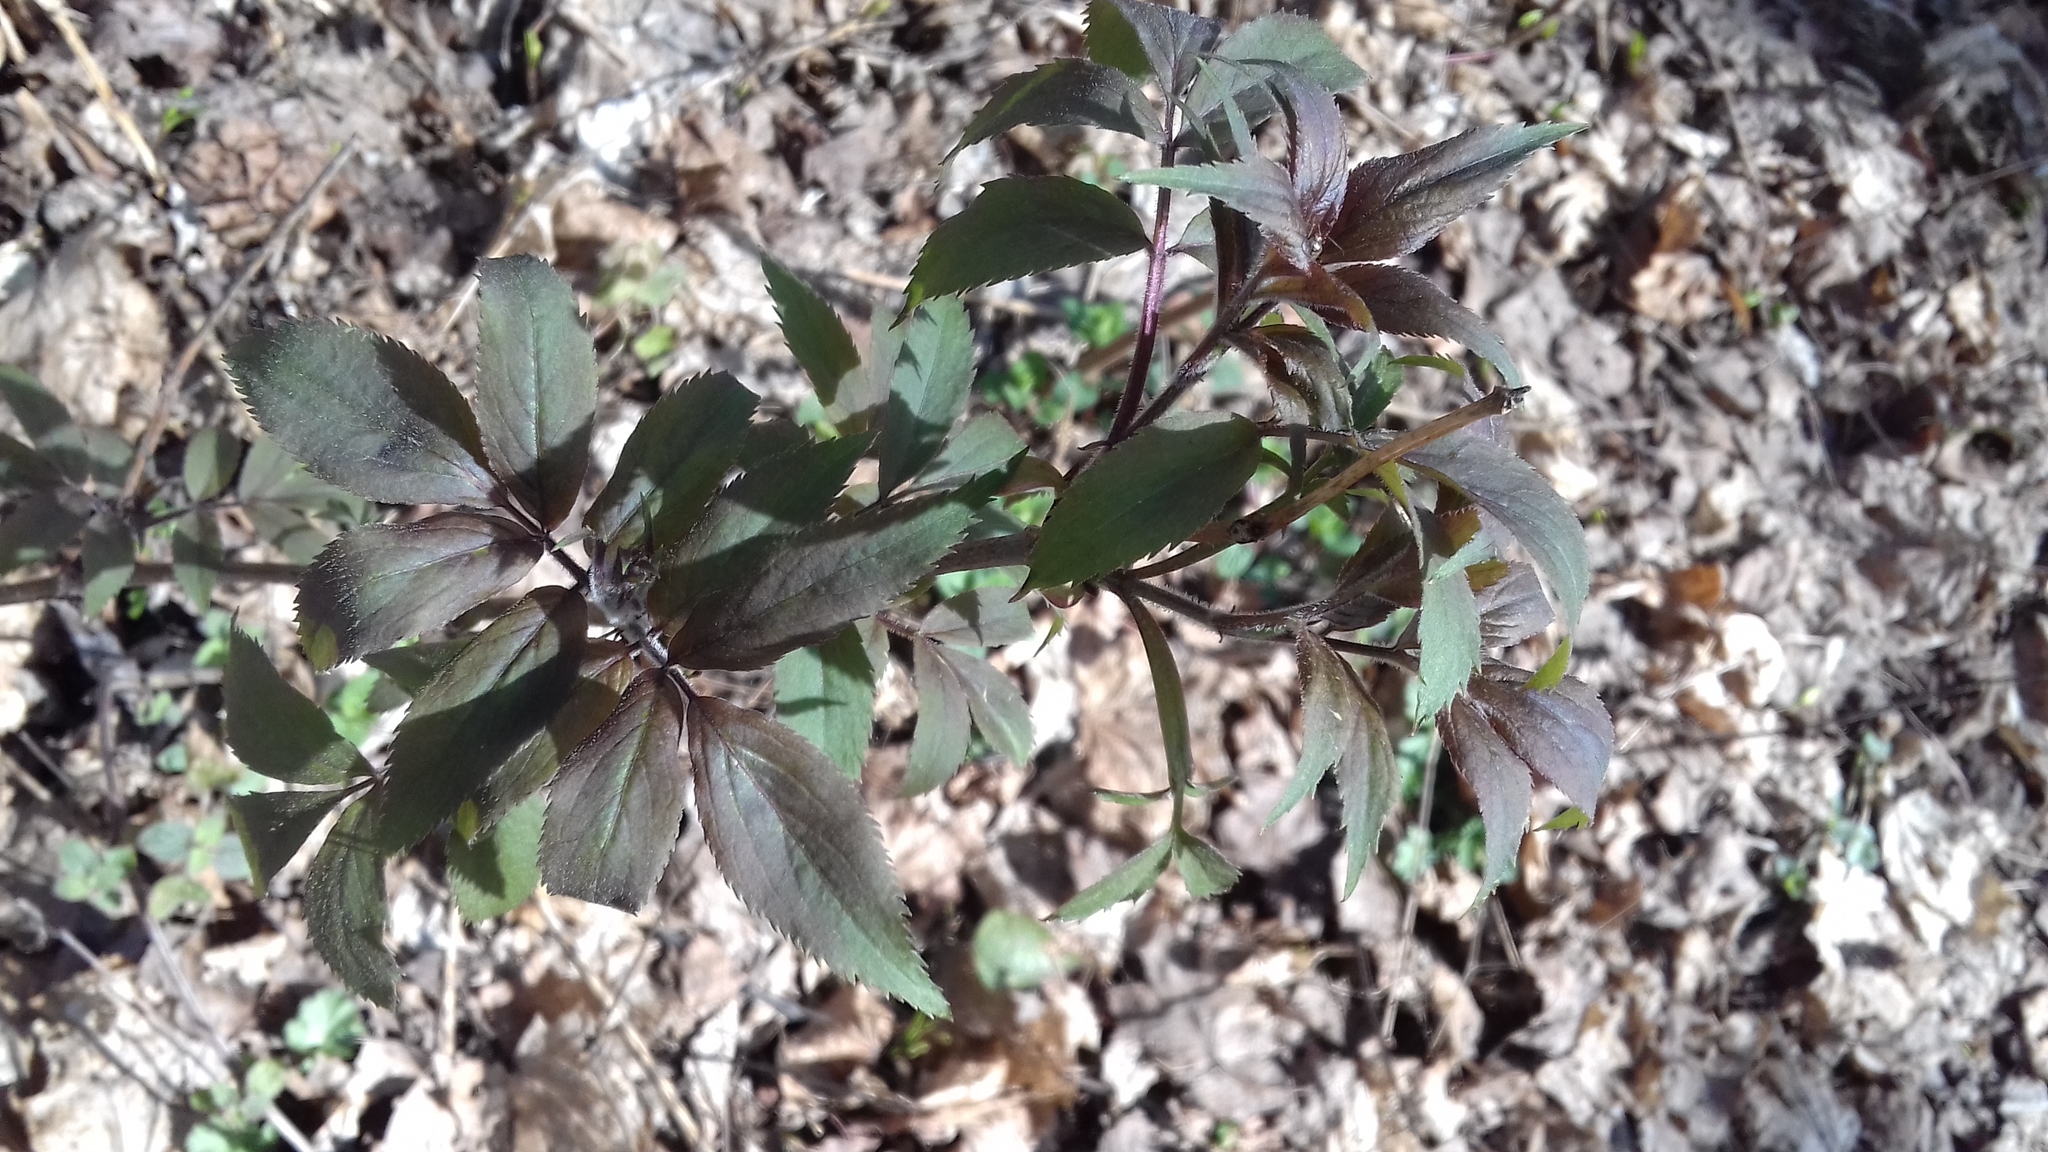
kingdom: Plantae
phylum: Tracheophyta
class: Magnoliopsida
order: Dipsacales
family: Viburnaceae
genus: Sambucus
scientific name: Sambucus racemosa
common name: Red-berried elder
